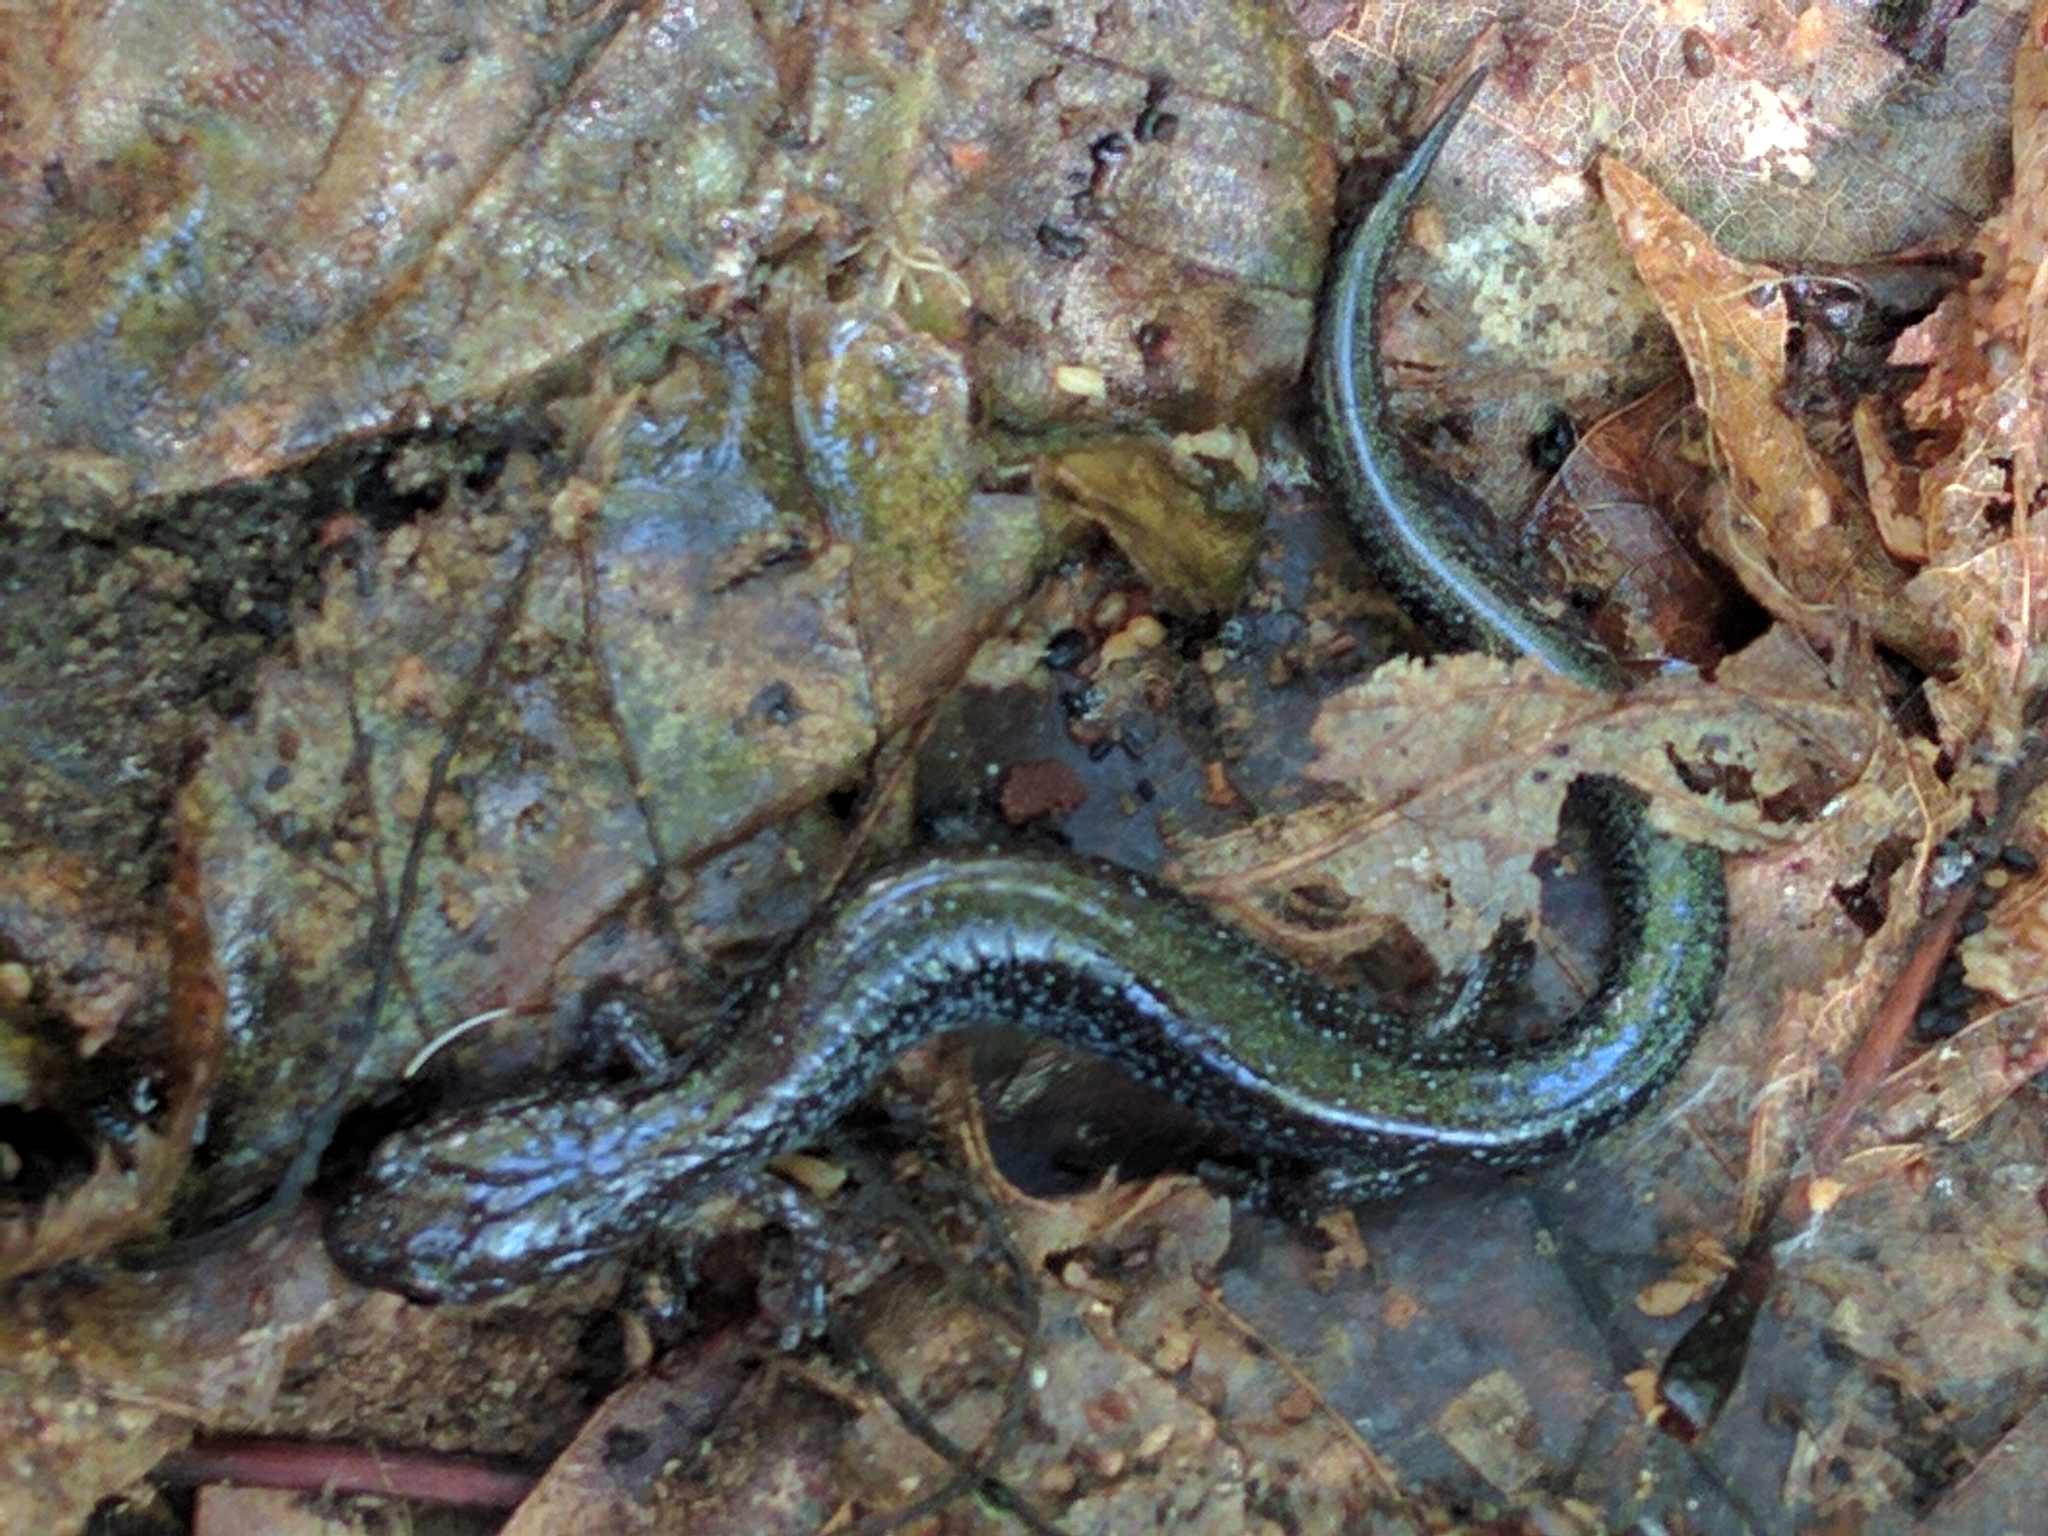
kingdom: Animalia
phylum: Chordata
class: Amphibia
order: Caudata
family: Plethodontidae
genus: Plethodon
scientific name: Plethodon cinereus
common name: Redback salamander
